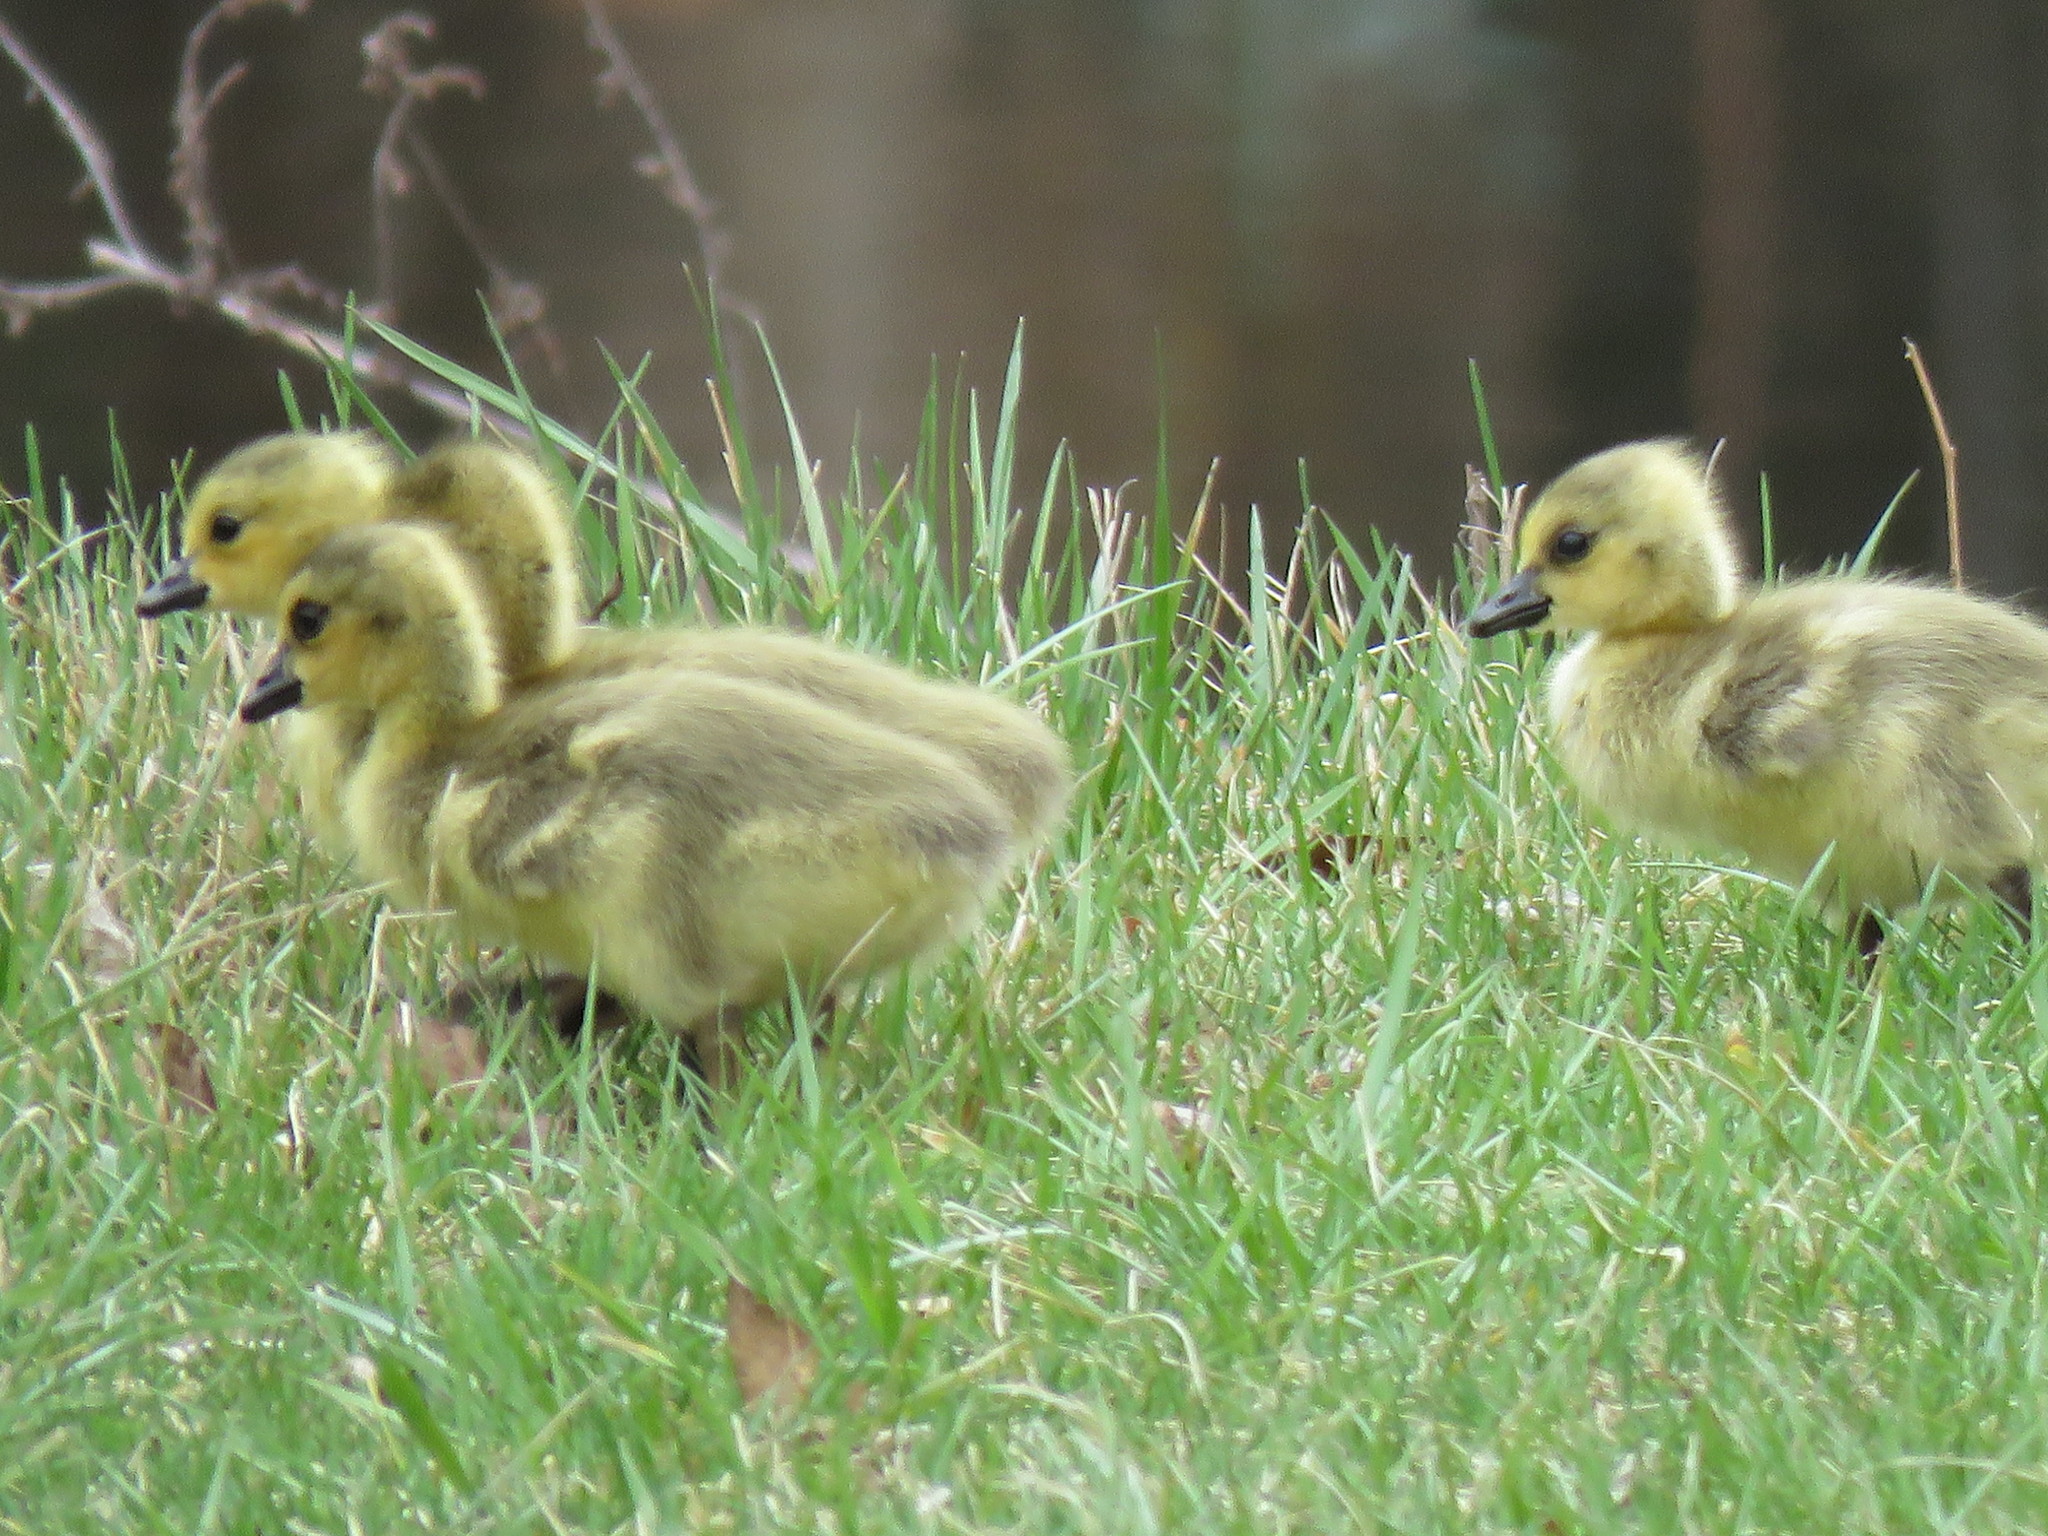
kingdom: Animalia
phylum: Chordata
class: Aves
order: Anseriformes
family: Anatidae
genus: Branta
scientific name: Branta canadensis
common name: Canada goose
